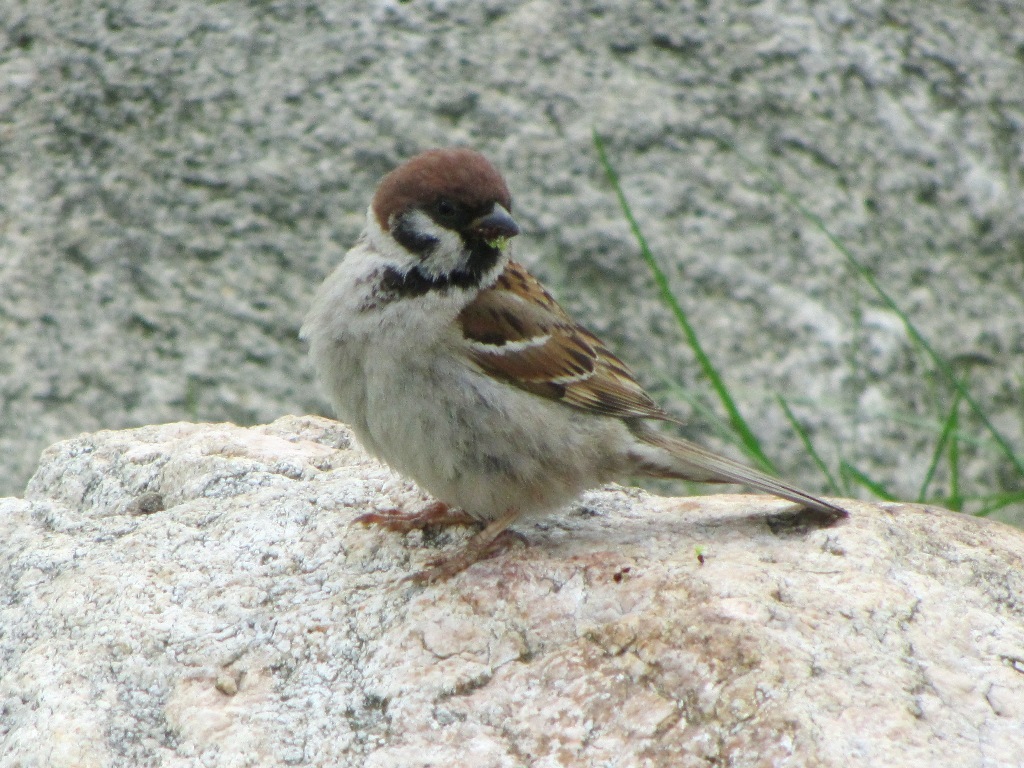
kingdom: Animalia
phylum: Chordata
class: Aves
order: Passeriformes
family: Passeridae
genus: Passer
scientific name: Passer montanus
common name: Eurasian tree sparrow
